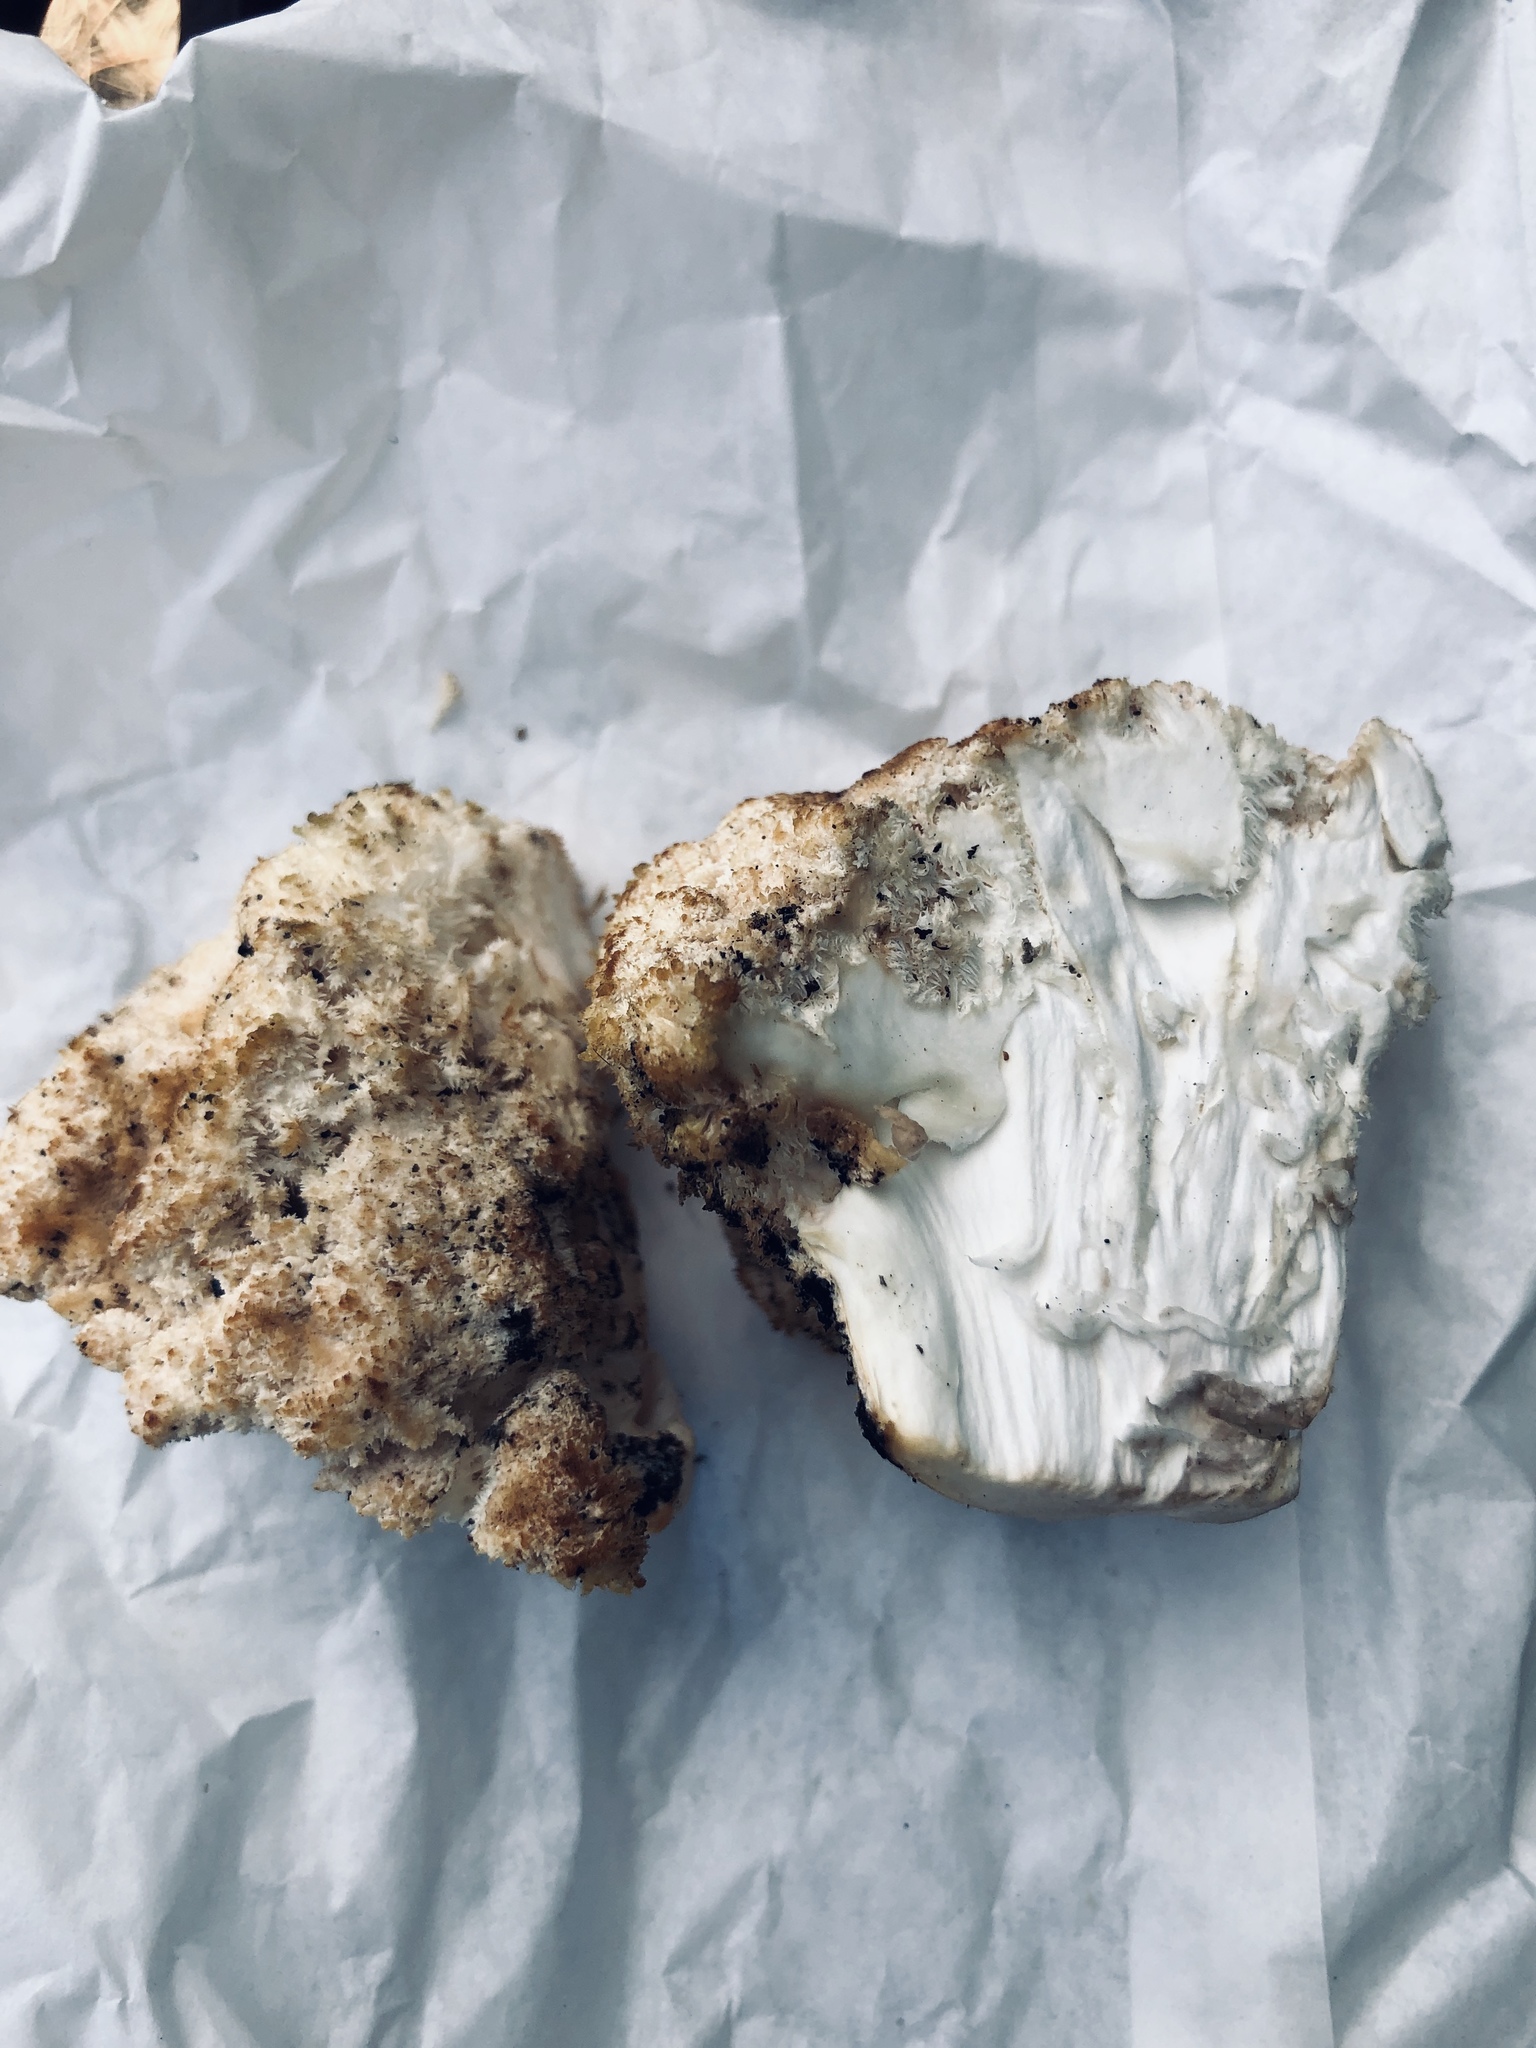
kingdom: Fungi
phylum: Basidiomycota
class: Agaricomycetes
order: Russulales
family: Hericiaceae
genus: Hericium
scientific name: Hericium coralloides
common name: Coral tooth
